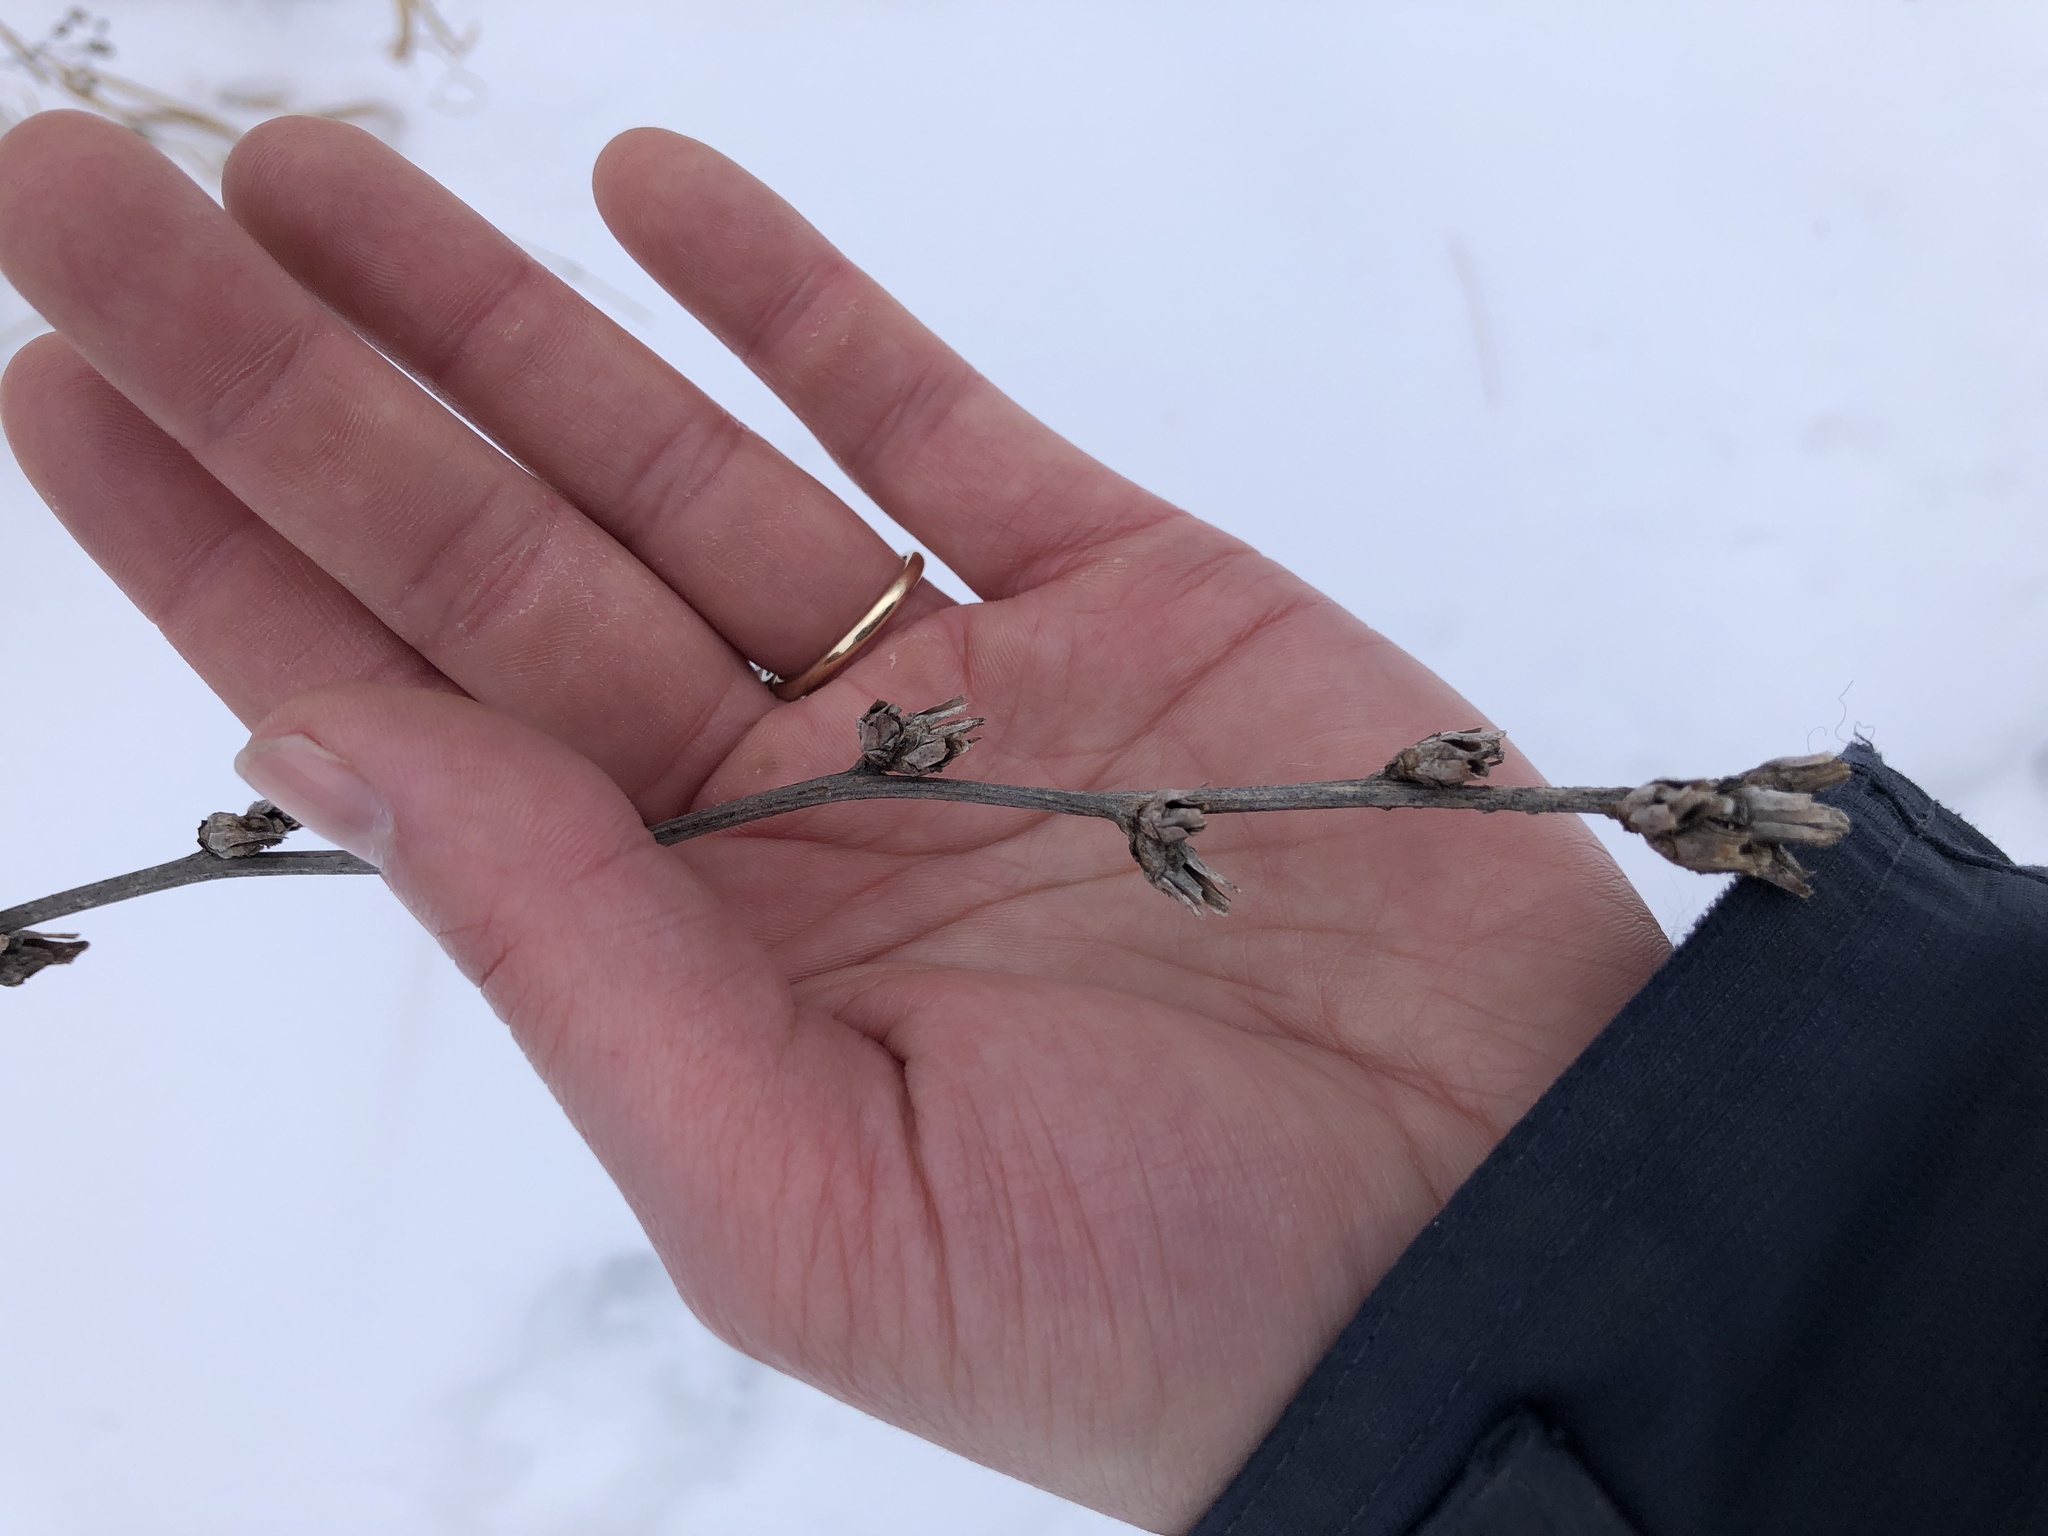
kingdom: Plantae
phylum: Tracheophyta
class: Magnoliopsida
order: Asterales
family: Asteraceae
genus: Cichorium
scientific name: Cichorium intybus
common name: Chicory
